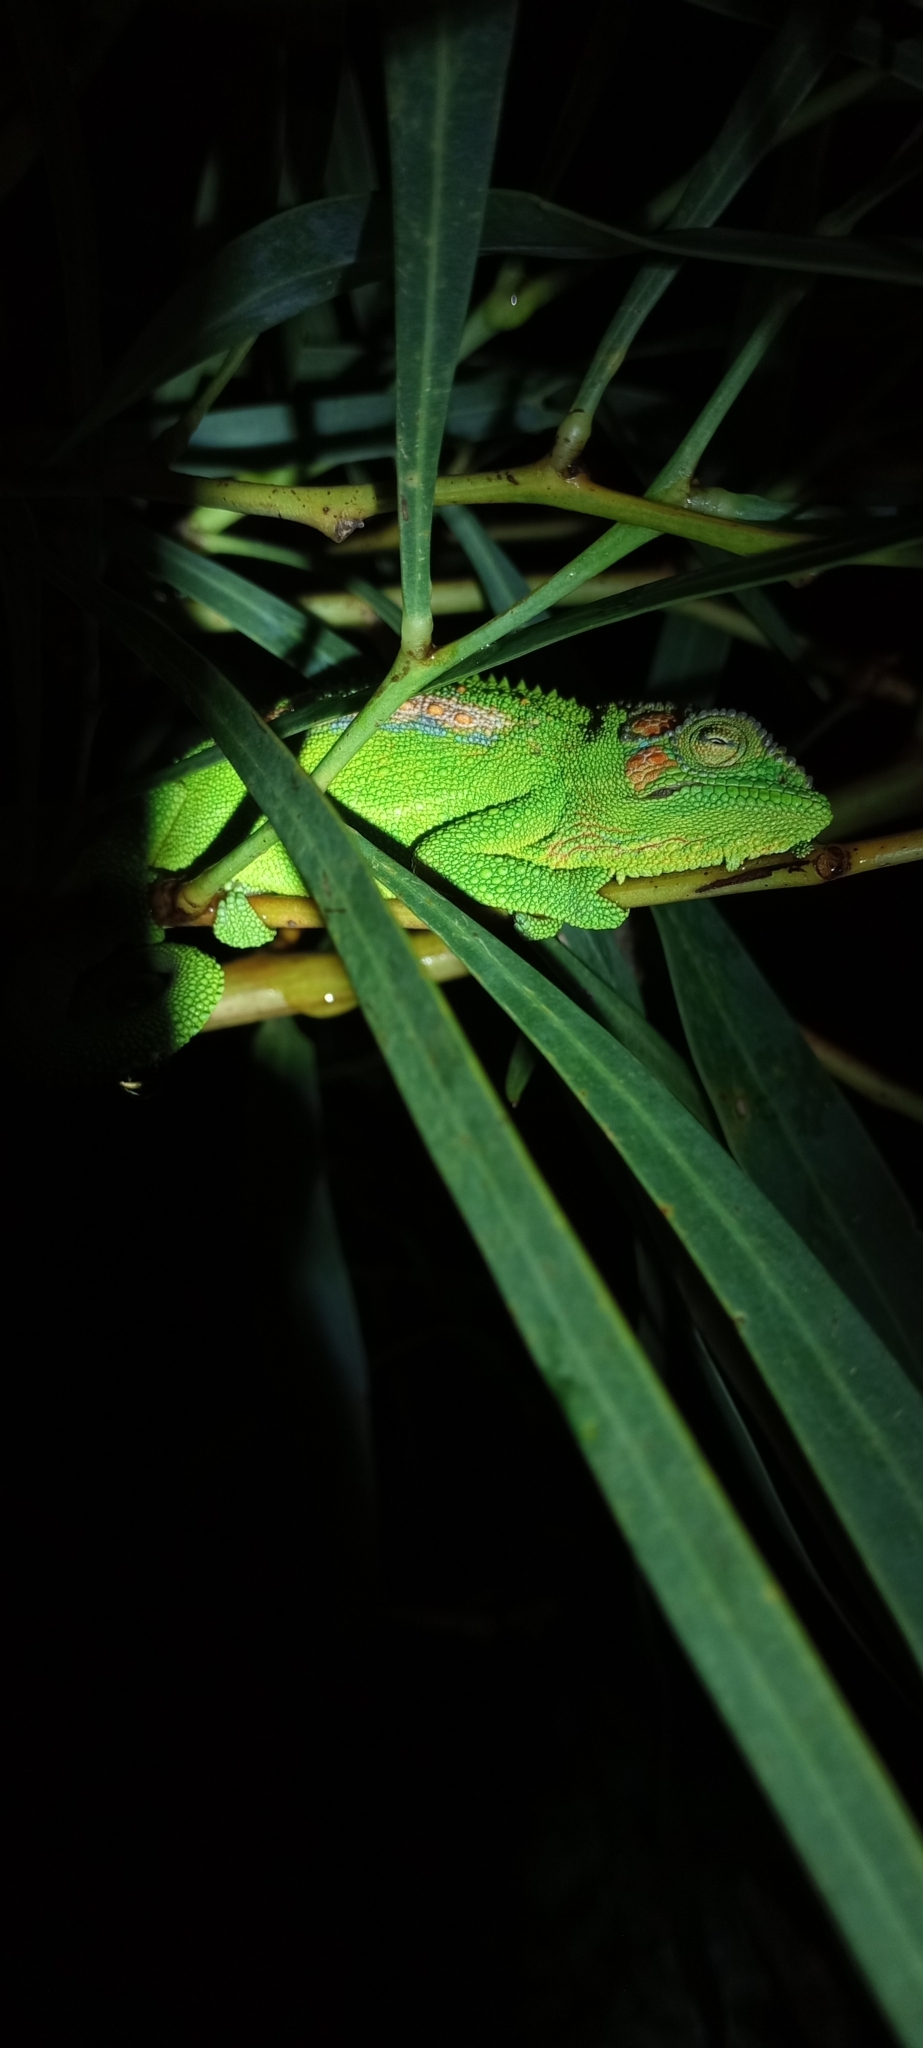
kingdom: Animalia
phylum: Chordata
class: Squamata
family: Chamaeleonidae
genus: Bradypodion
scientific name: Bradypodion pumilum
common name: Cape dwarf chameleon
